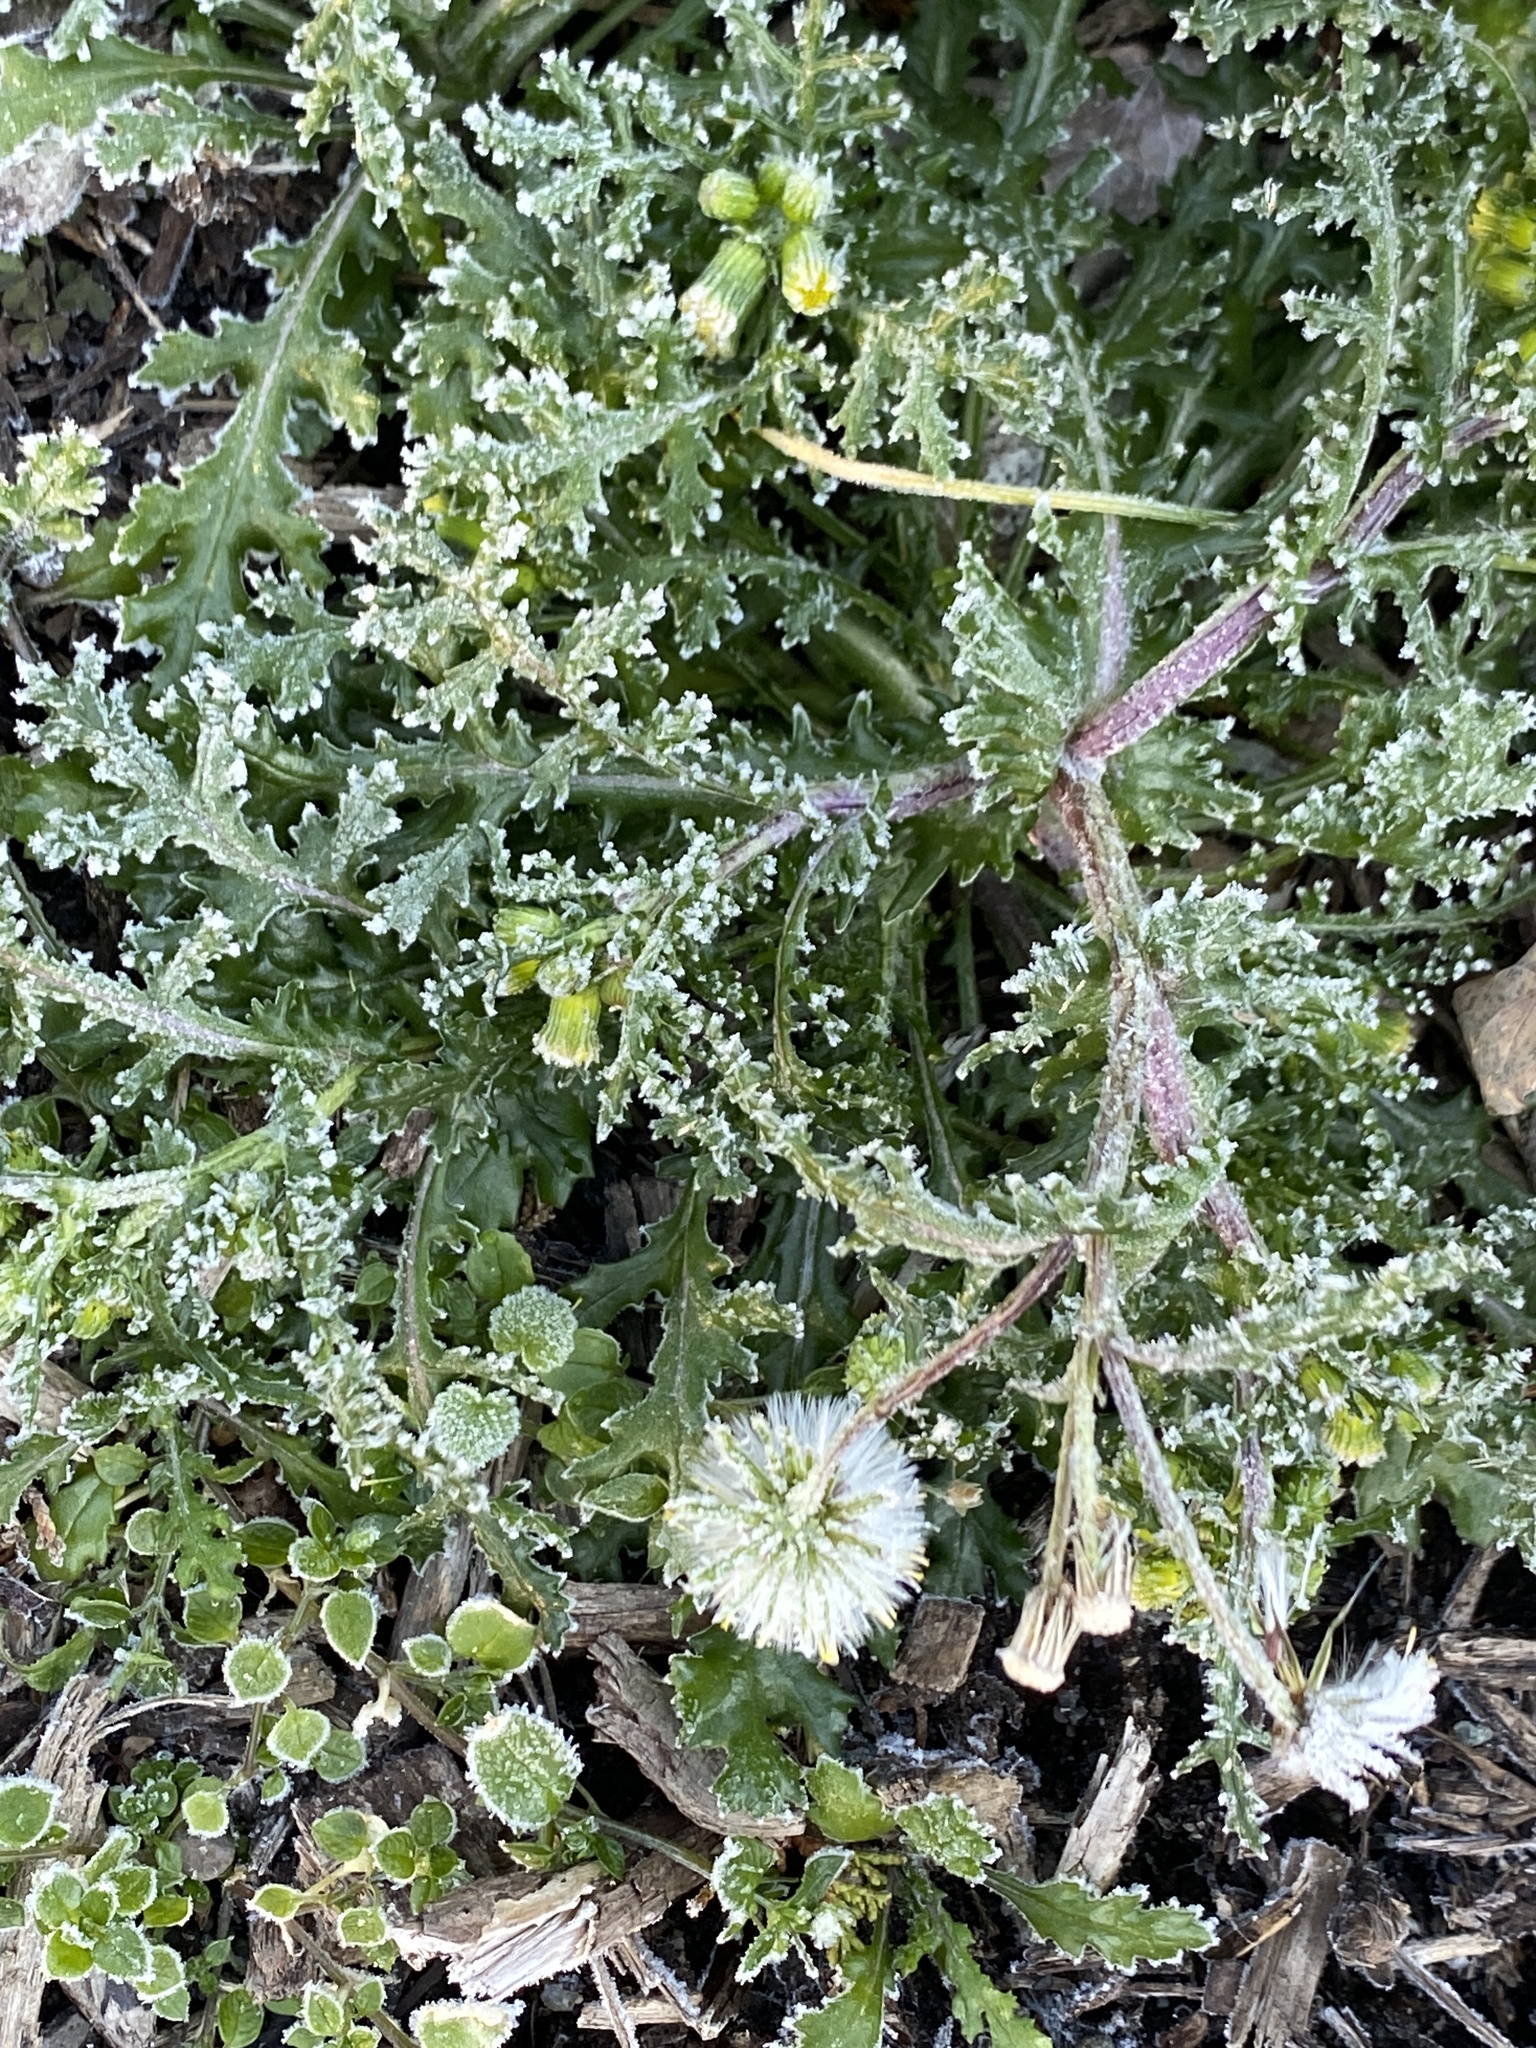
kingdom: Plantae
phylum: Tracheophyta
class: Magnoliopsida
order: Asterales
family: Asteraceae
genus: Senecio
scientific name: Senecio vulgaris
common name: Old-man-in-the-spring
